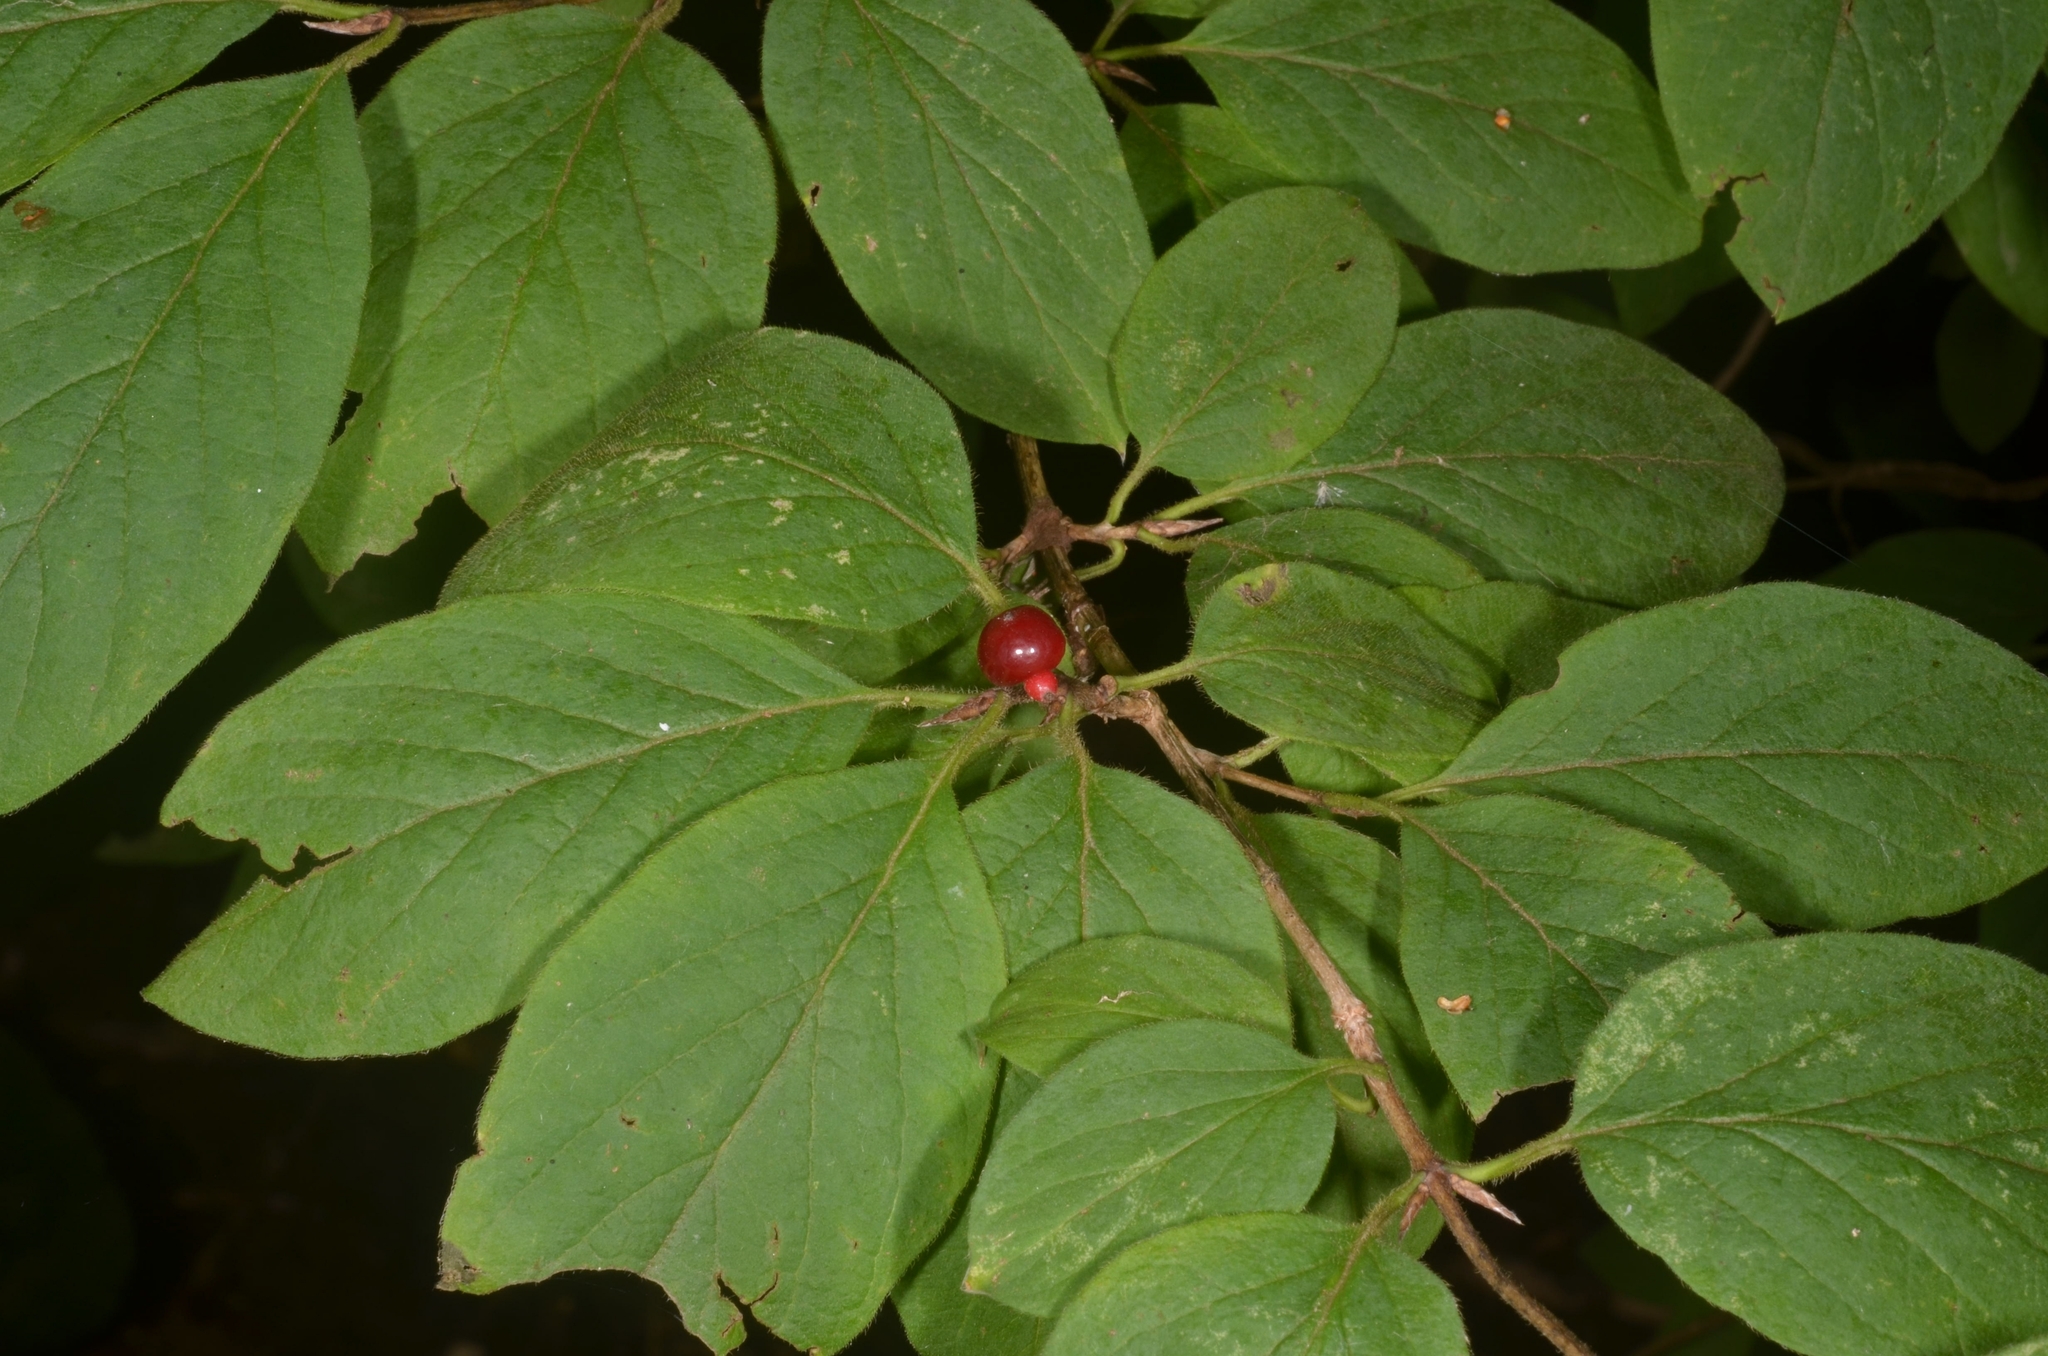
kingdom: Plantae
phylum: Tracheophyta
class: Magnoliopsida
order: Dipsacales
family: Caprifoliaceae
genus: Lonicera
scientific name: Lonicera xylosteum
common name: Fly honeysuckle
